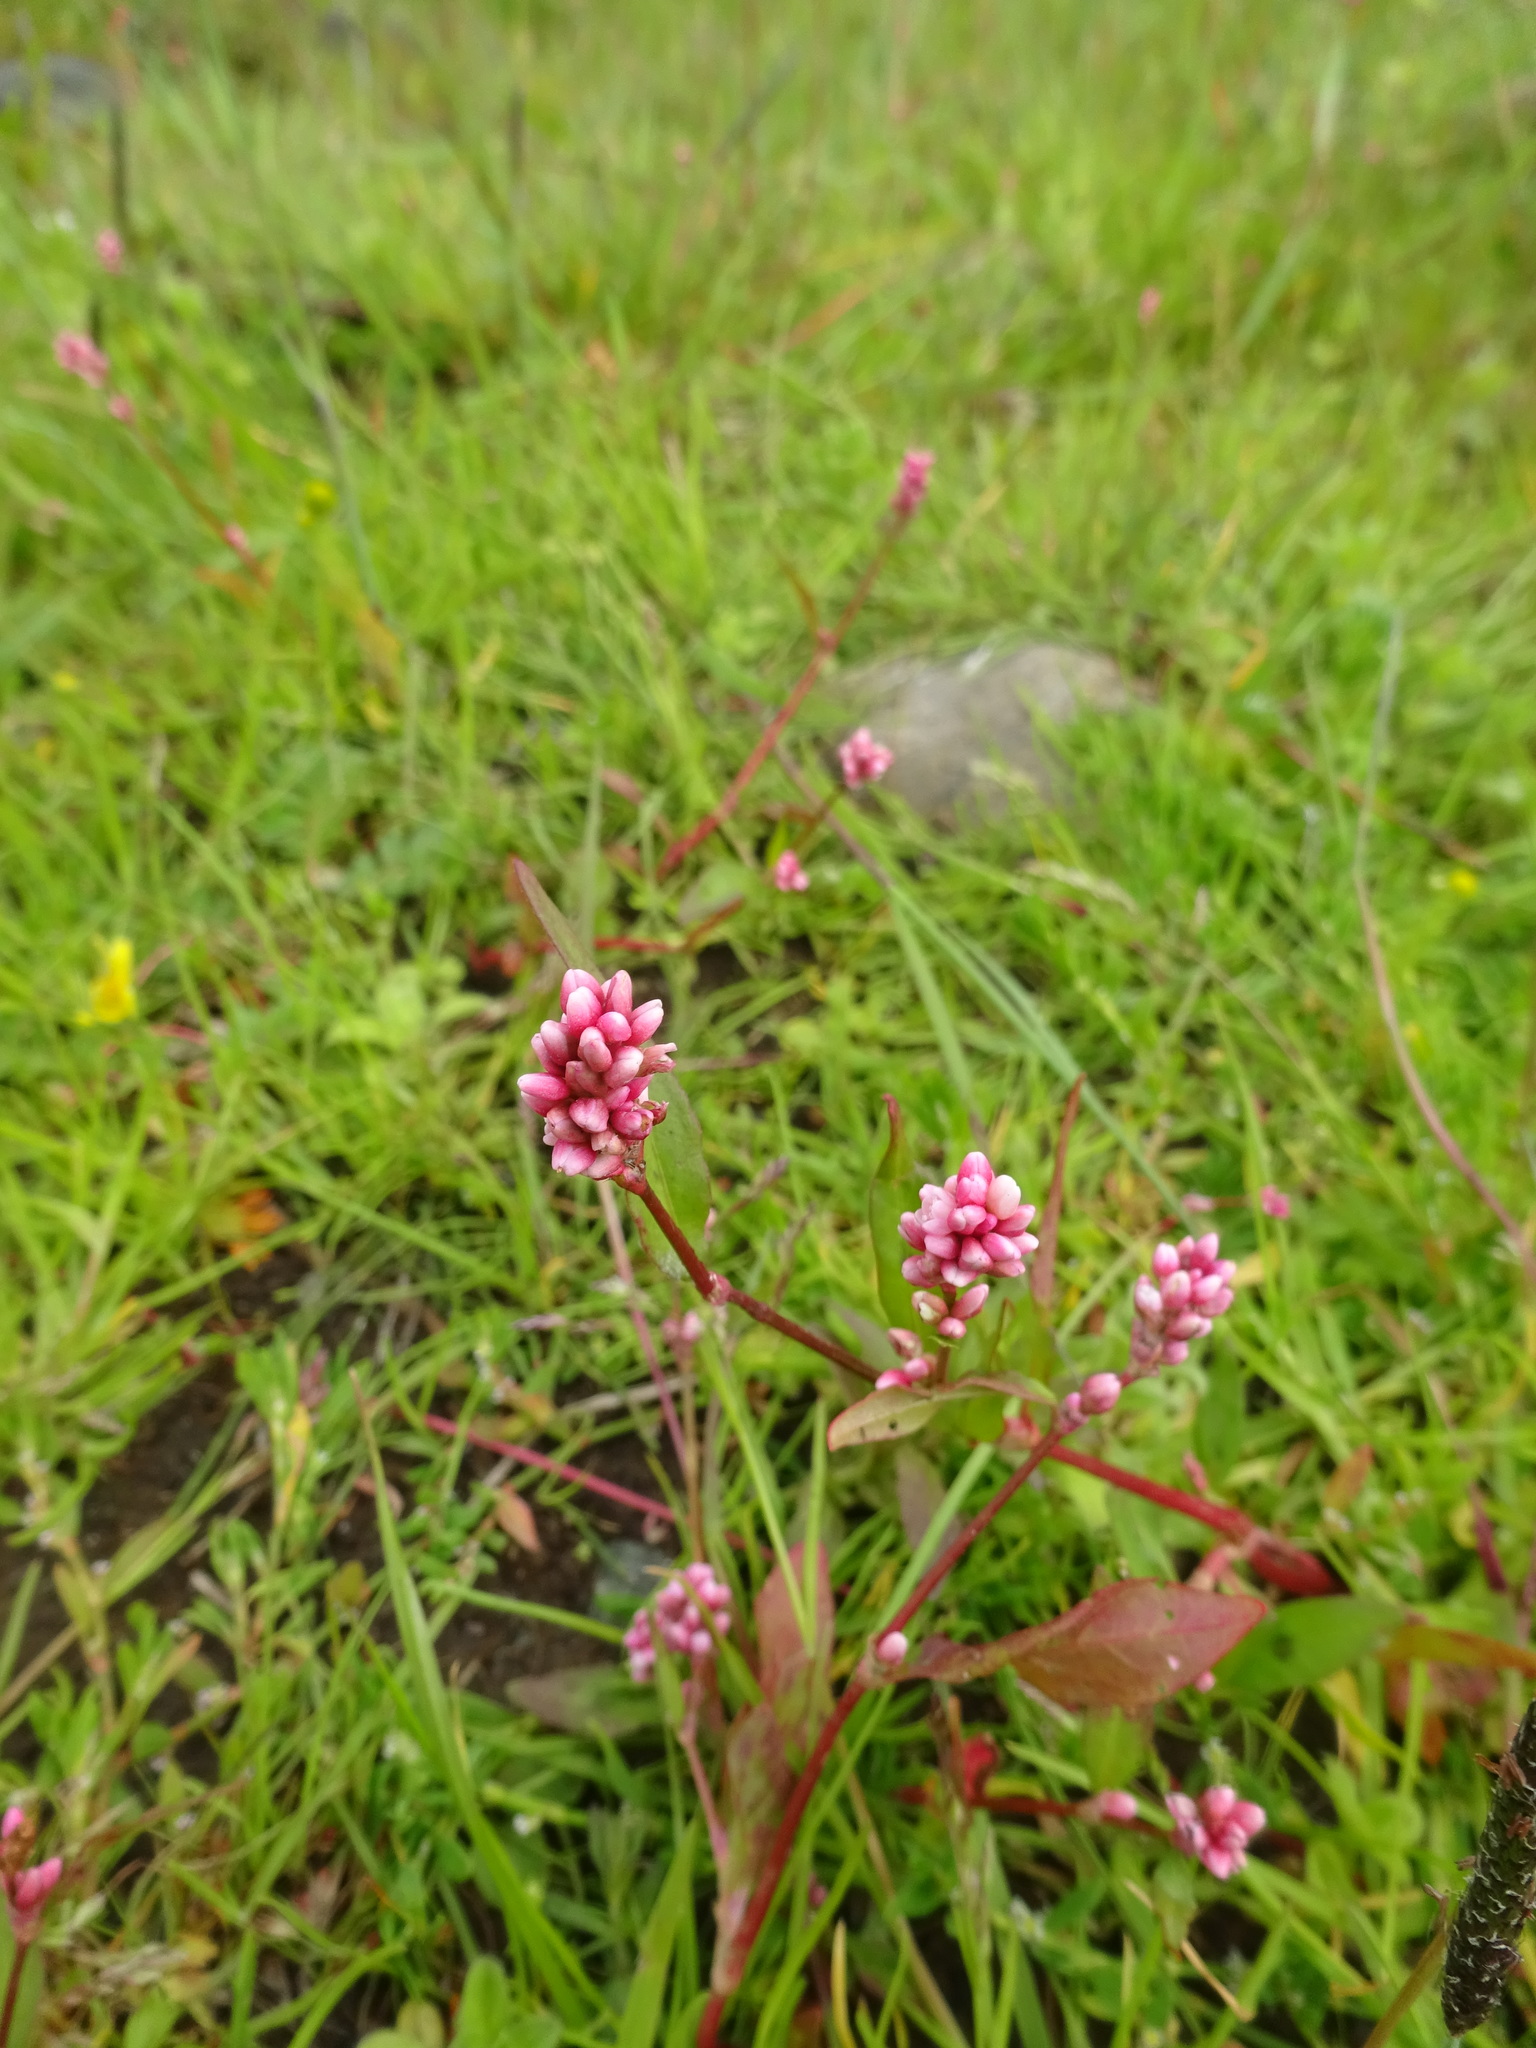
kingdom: Plantae
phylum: Tracheophyta
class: Magnoliopsida
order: Caryophyllales
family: Polygonaceae
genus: Persicaria
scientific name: Persicaria maculosa
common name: Redshank
